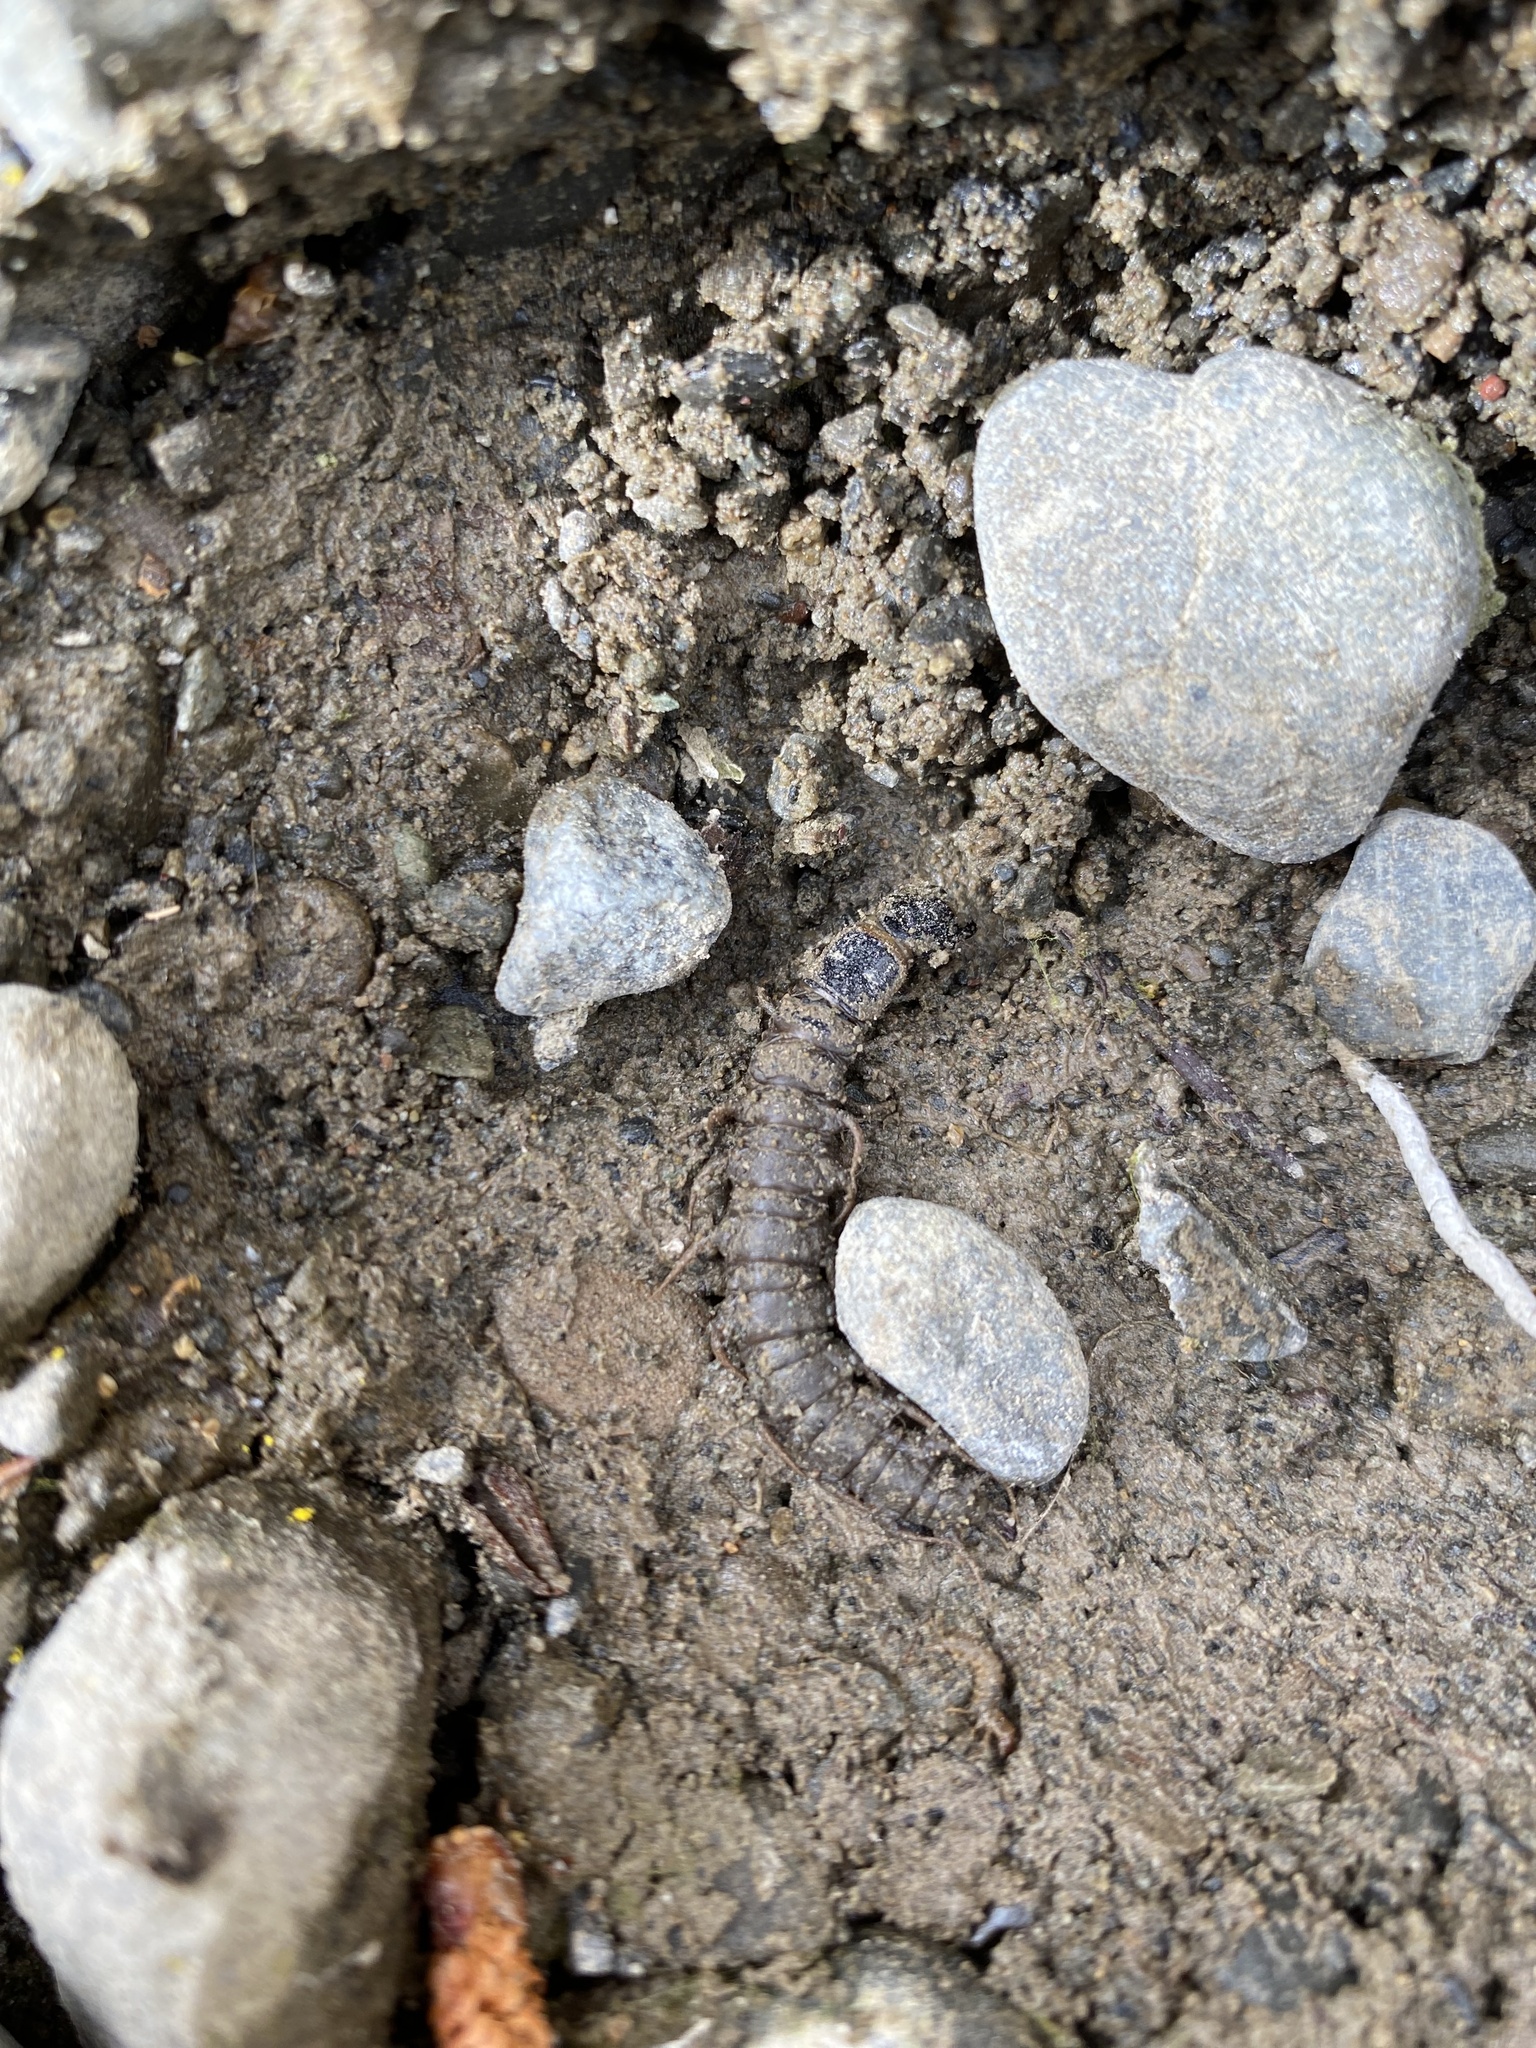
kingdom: Animalia
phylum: Arthropoda
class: Insecta
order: Megaloptera
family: Corydalidae
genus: Archichauliodes
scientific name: Archichauliodes diversus
